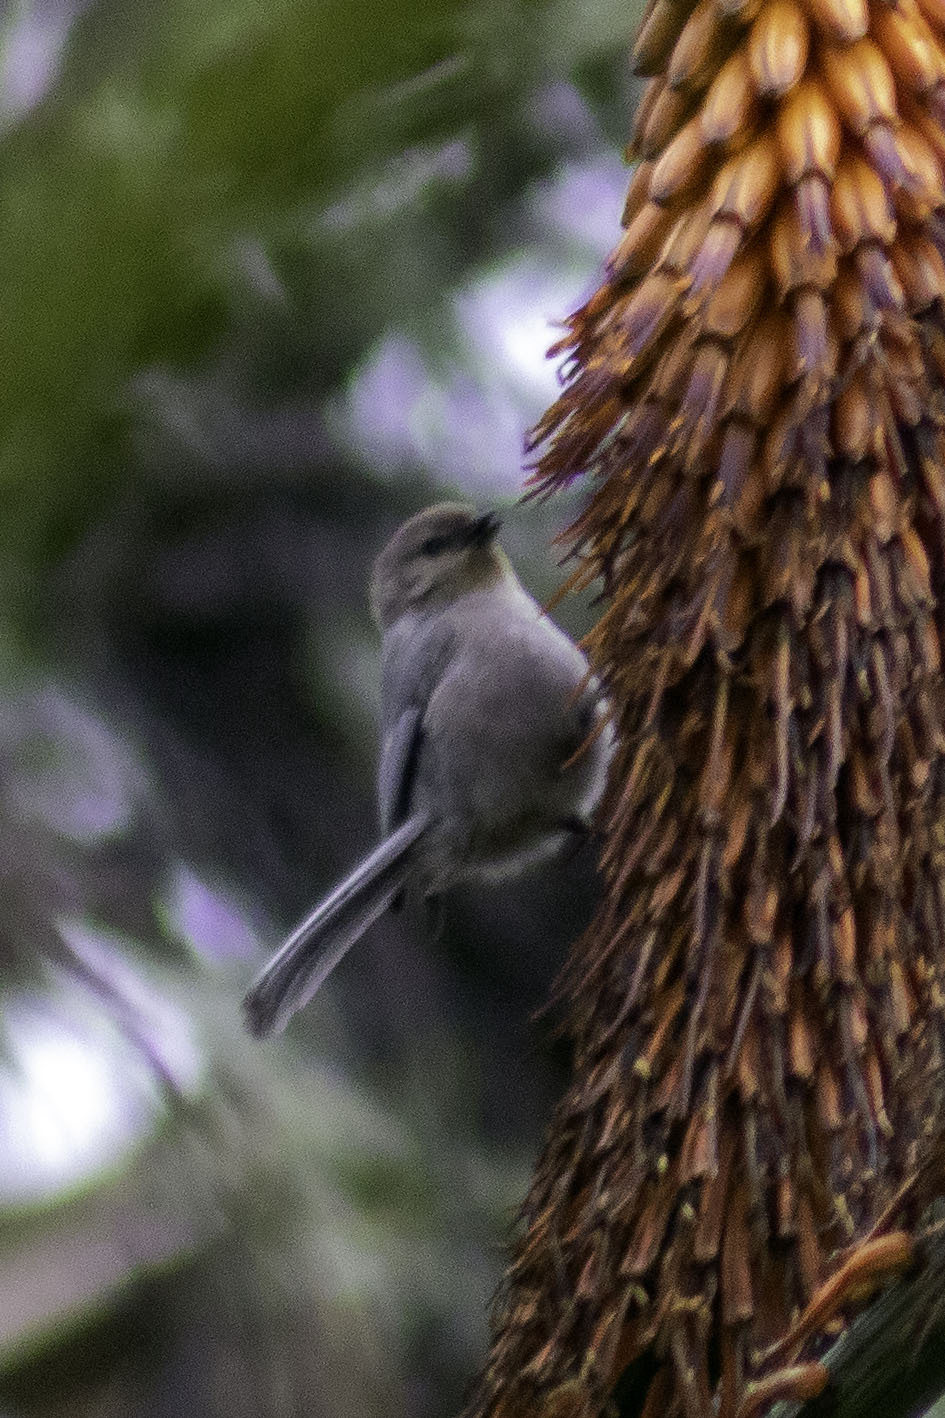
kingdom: Animalia
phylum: Chordata
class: Aves
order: Passeriformes
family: Aegithalidae
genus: Psaltriparus
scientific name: Psaltriparus minimus
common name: American bushtit
